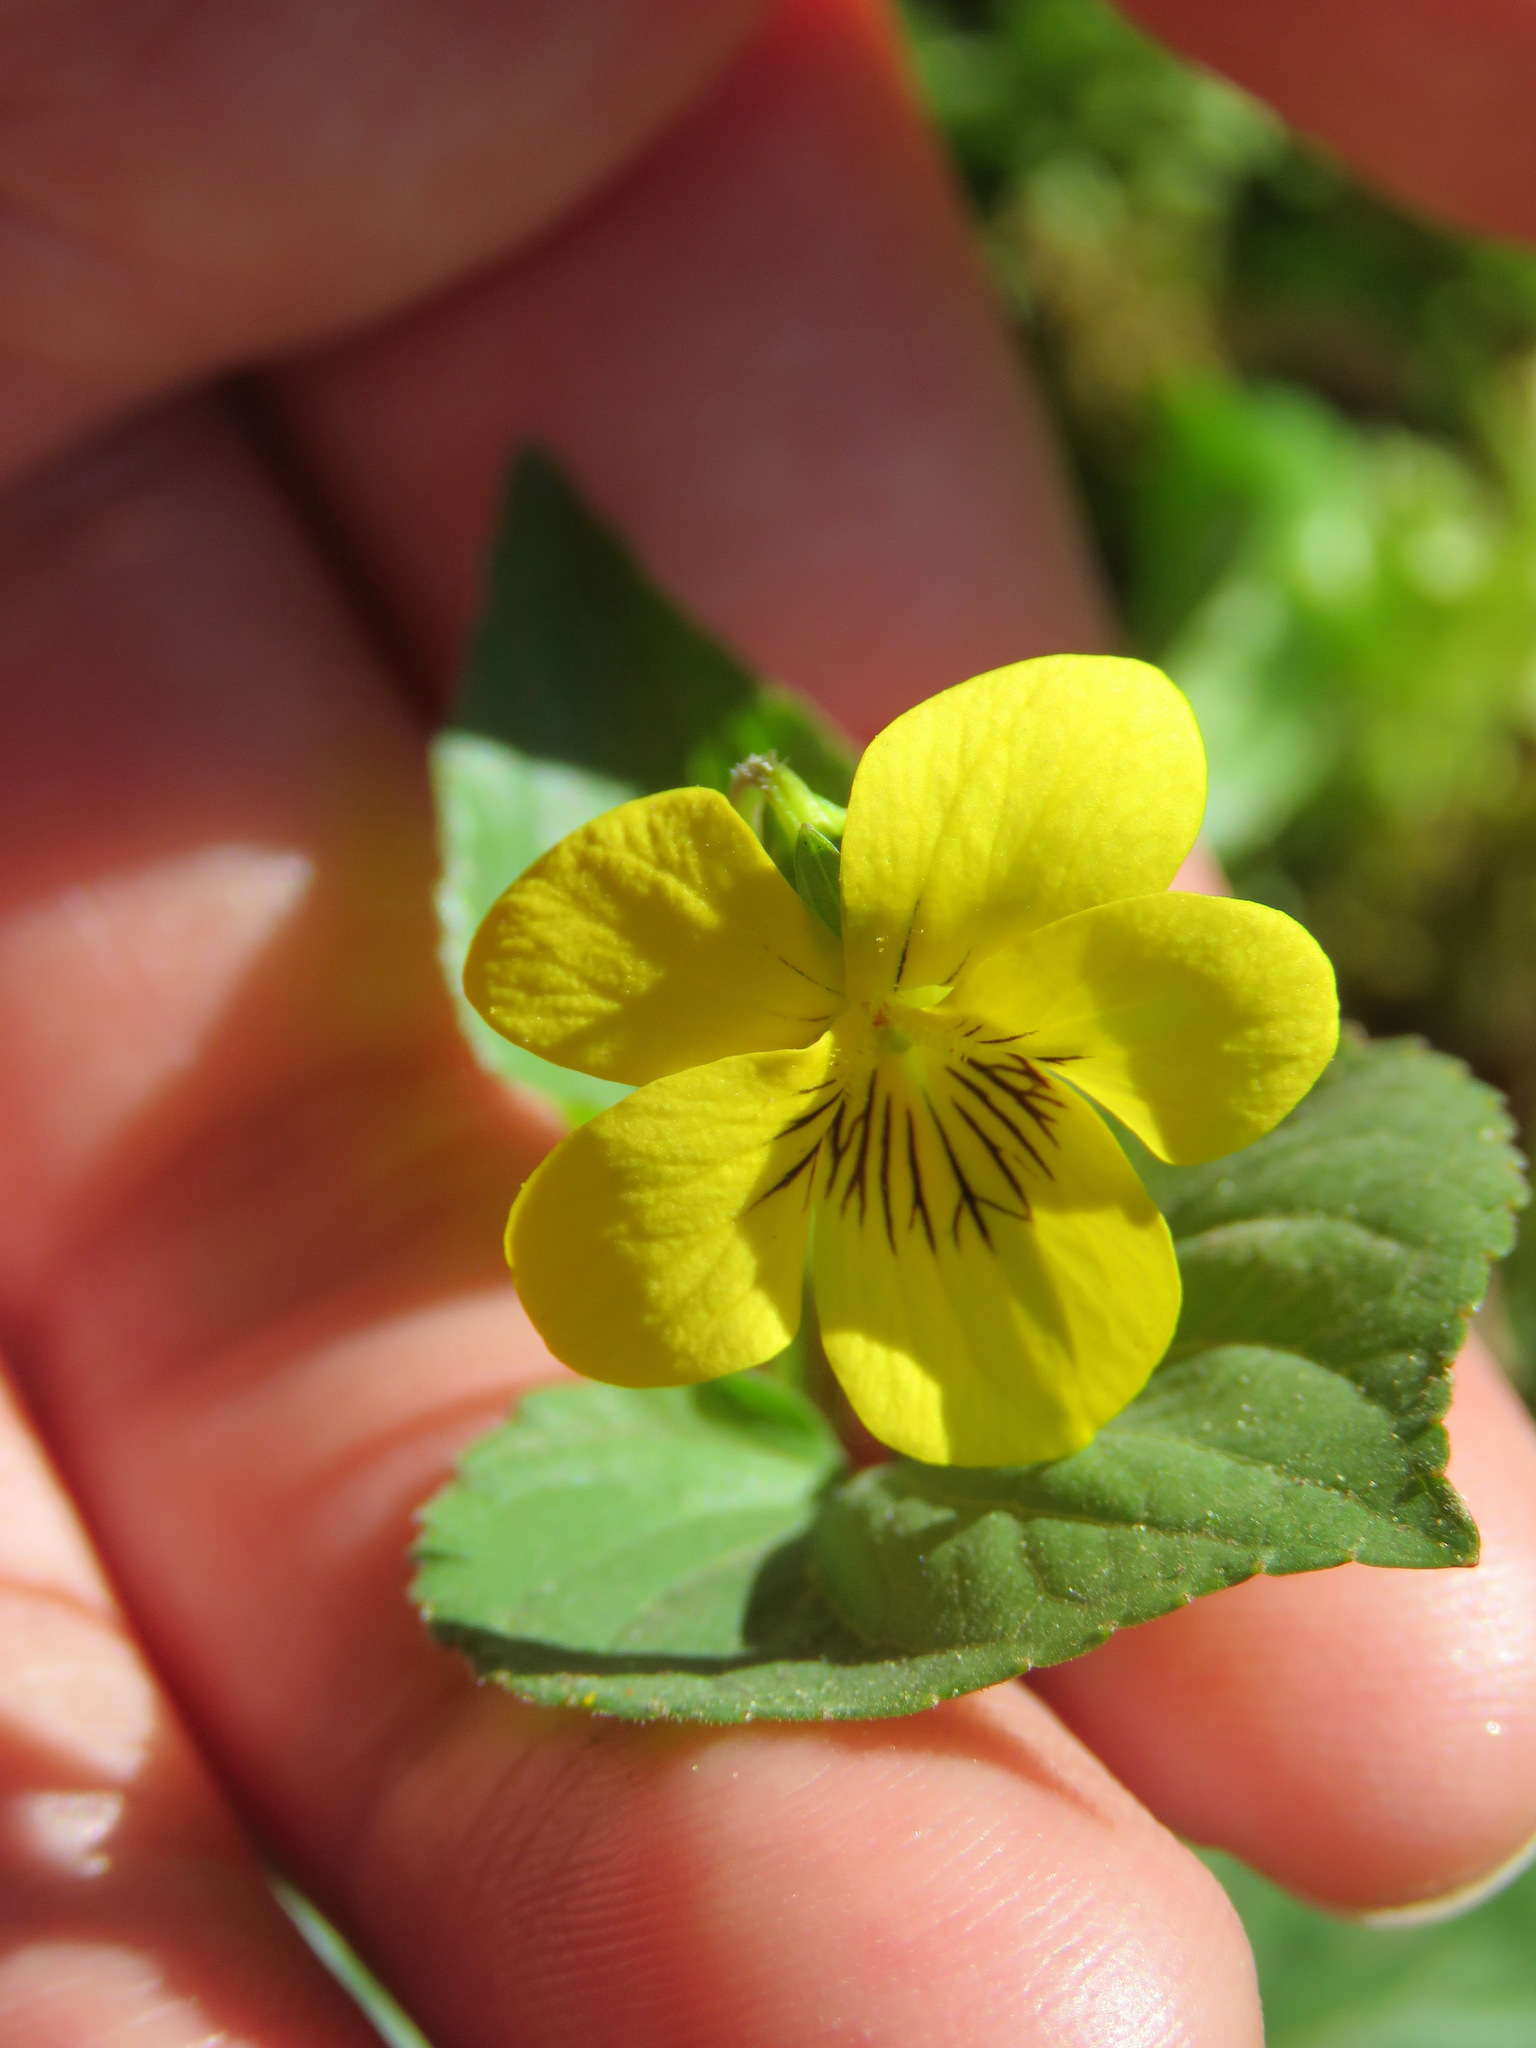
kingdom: Plantae
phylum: Tracheophyta
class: Magnoliopsida
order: Malpighiales
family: Violaceae
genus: Viola
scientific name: Viola glabella
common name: Stream violet
